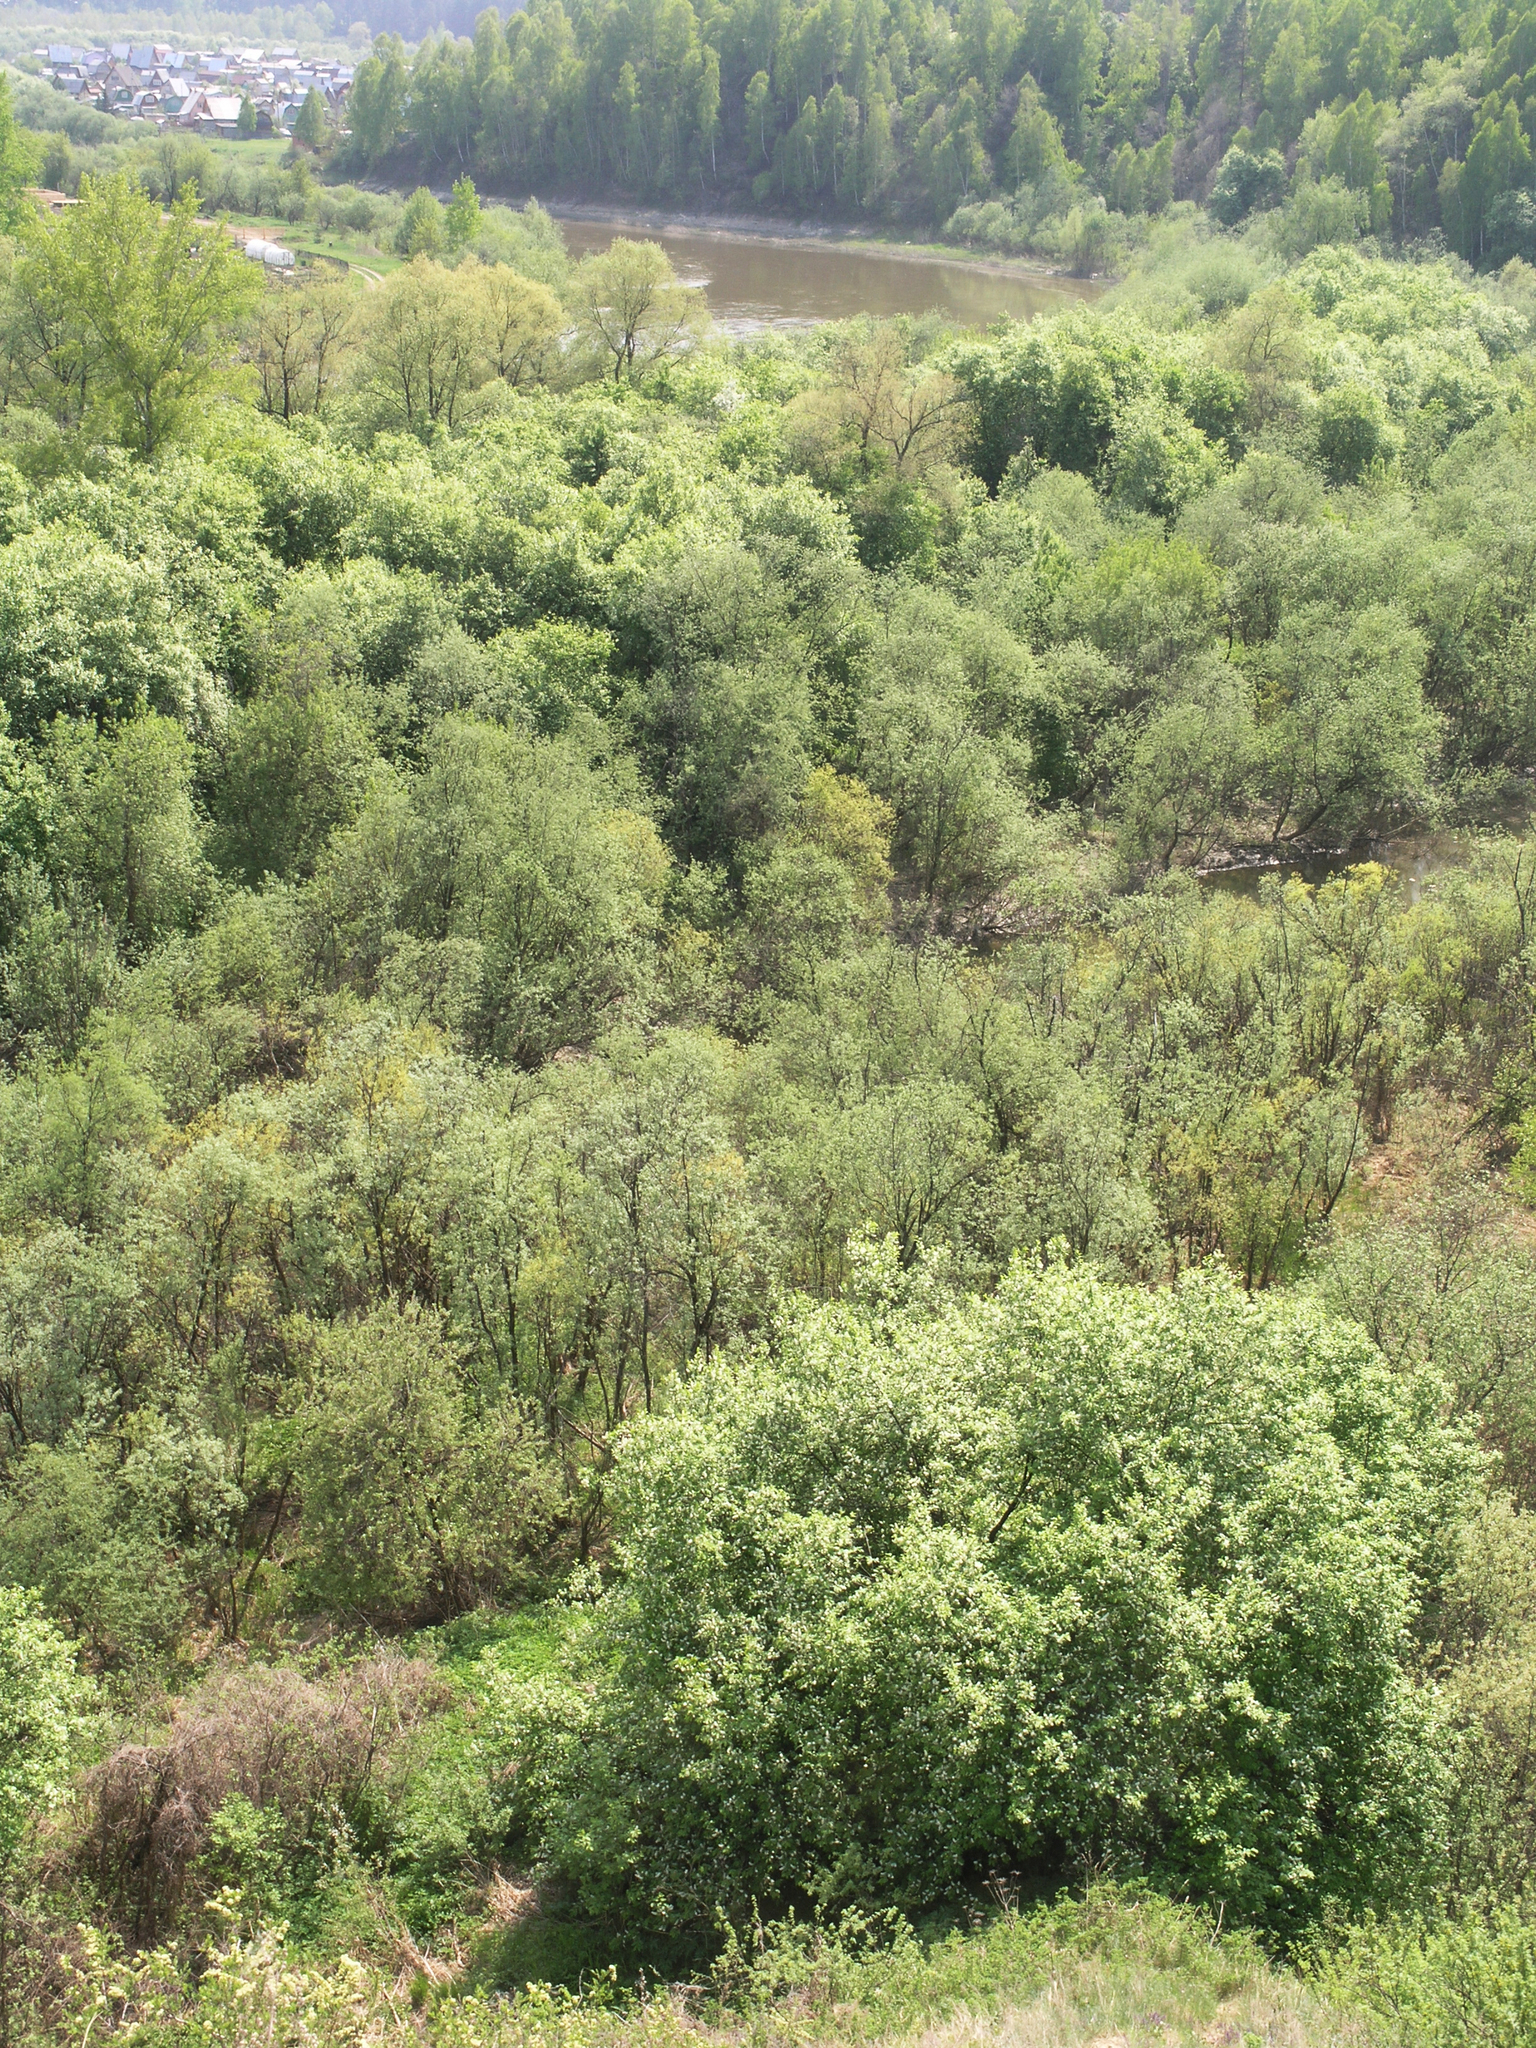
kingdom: Plantae
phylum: Tracheophyta
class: Magnoliopsida
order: Rosales
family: Rosaceae
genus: Prunus
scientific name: Prunus padus
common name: Bird cherry
